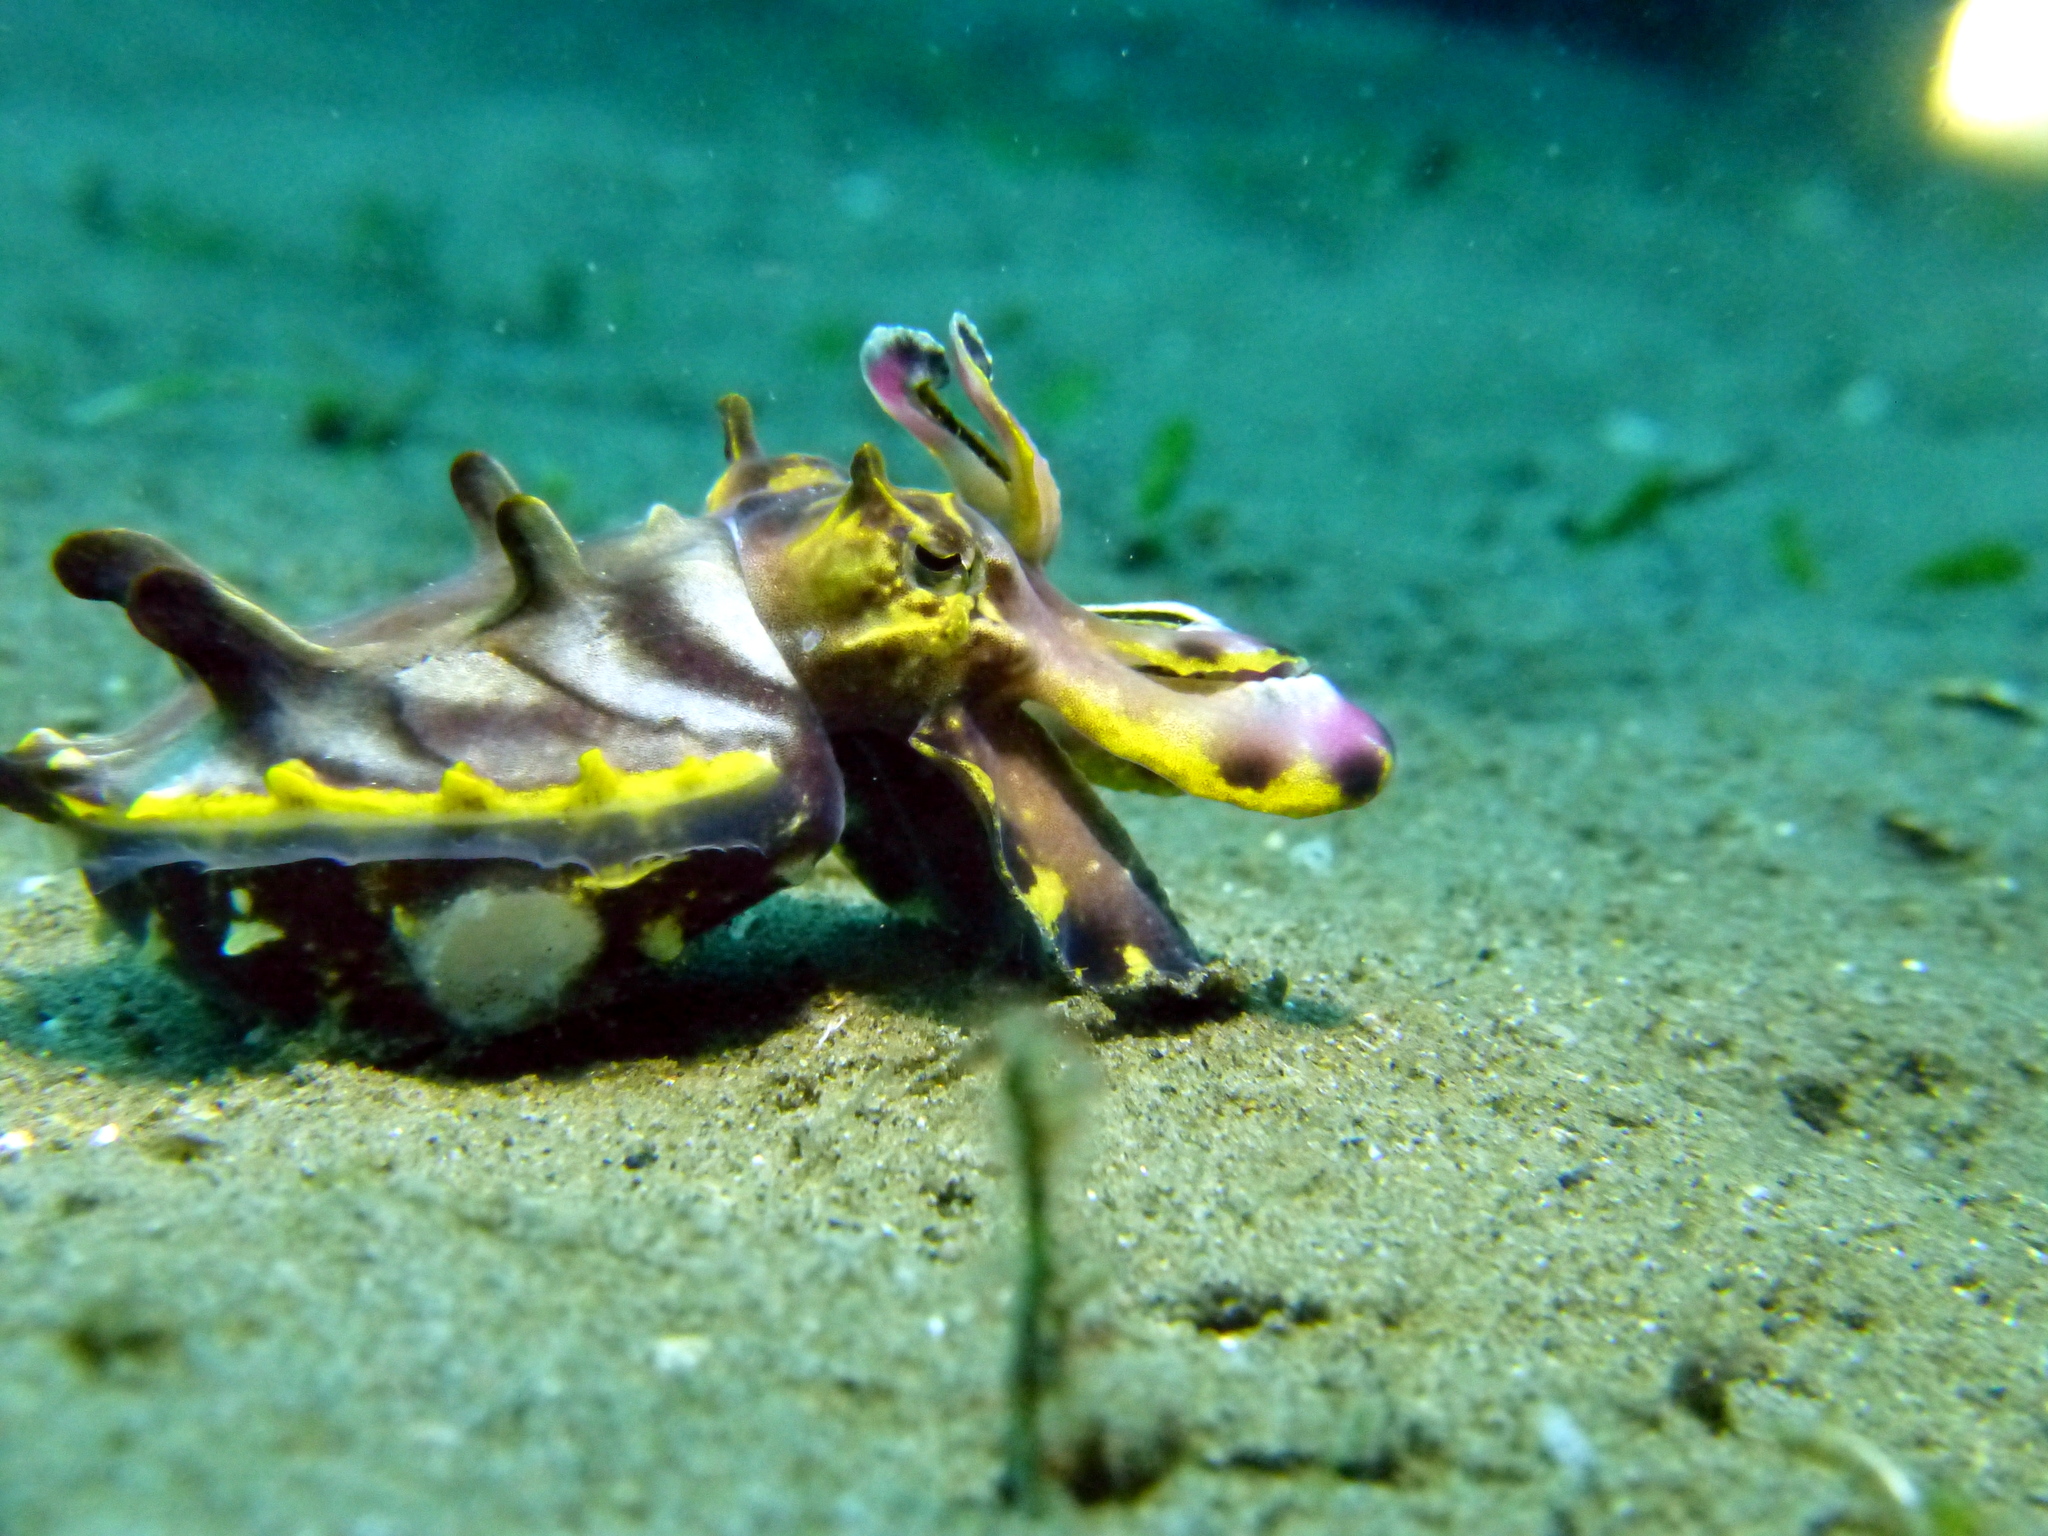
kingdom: Animalia
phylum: Mollusca
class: Cephalopoda
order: Sepiida
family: Sepiidae
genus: Ascarosepion
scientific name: Ascarosepion pfefferi
